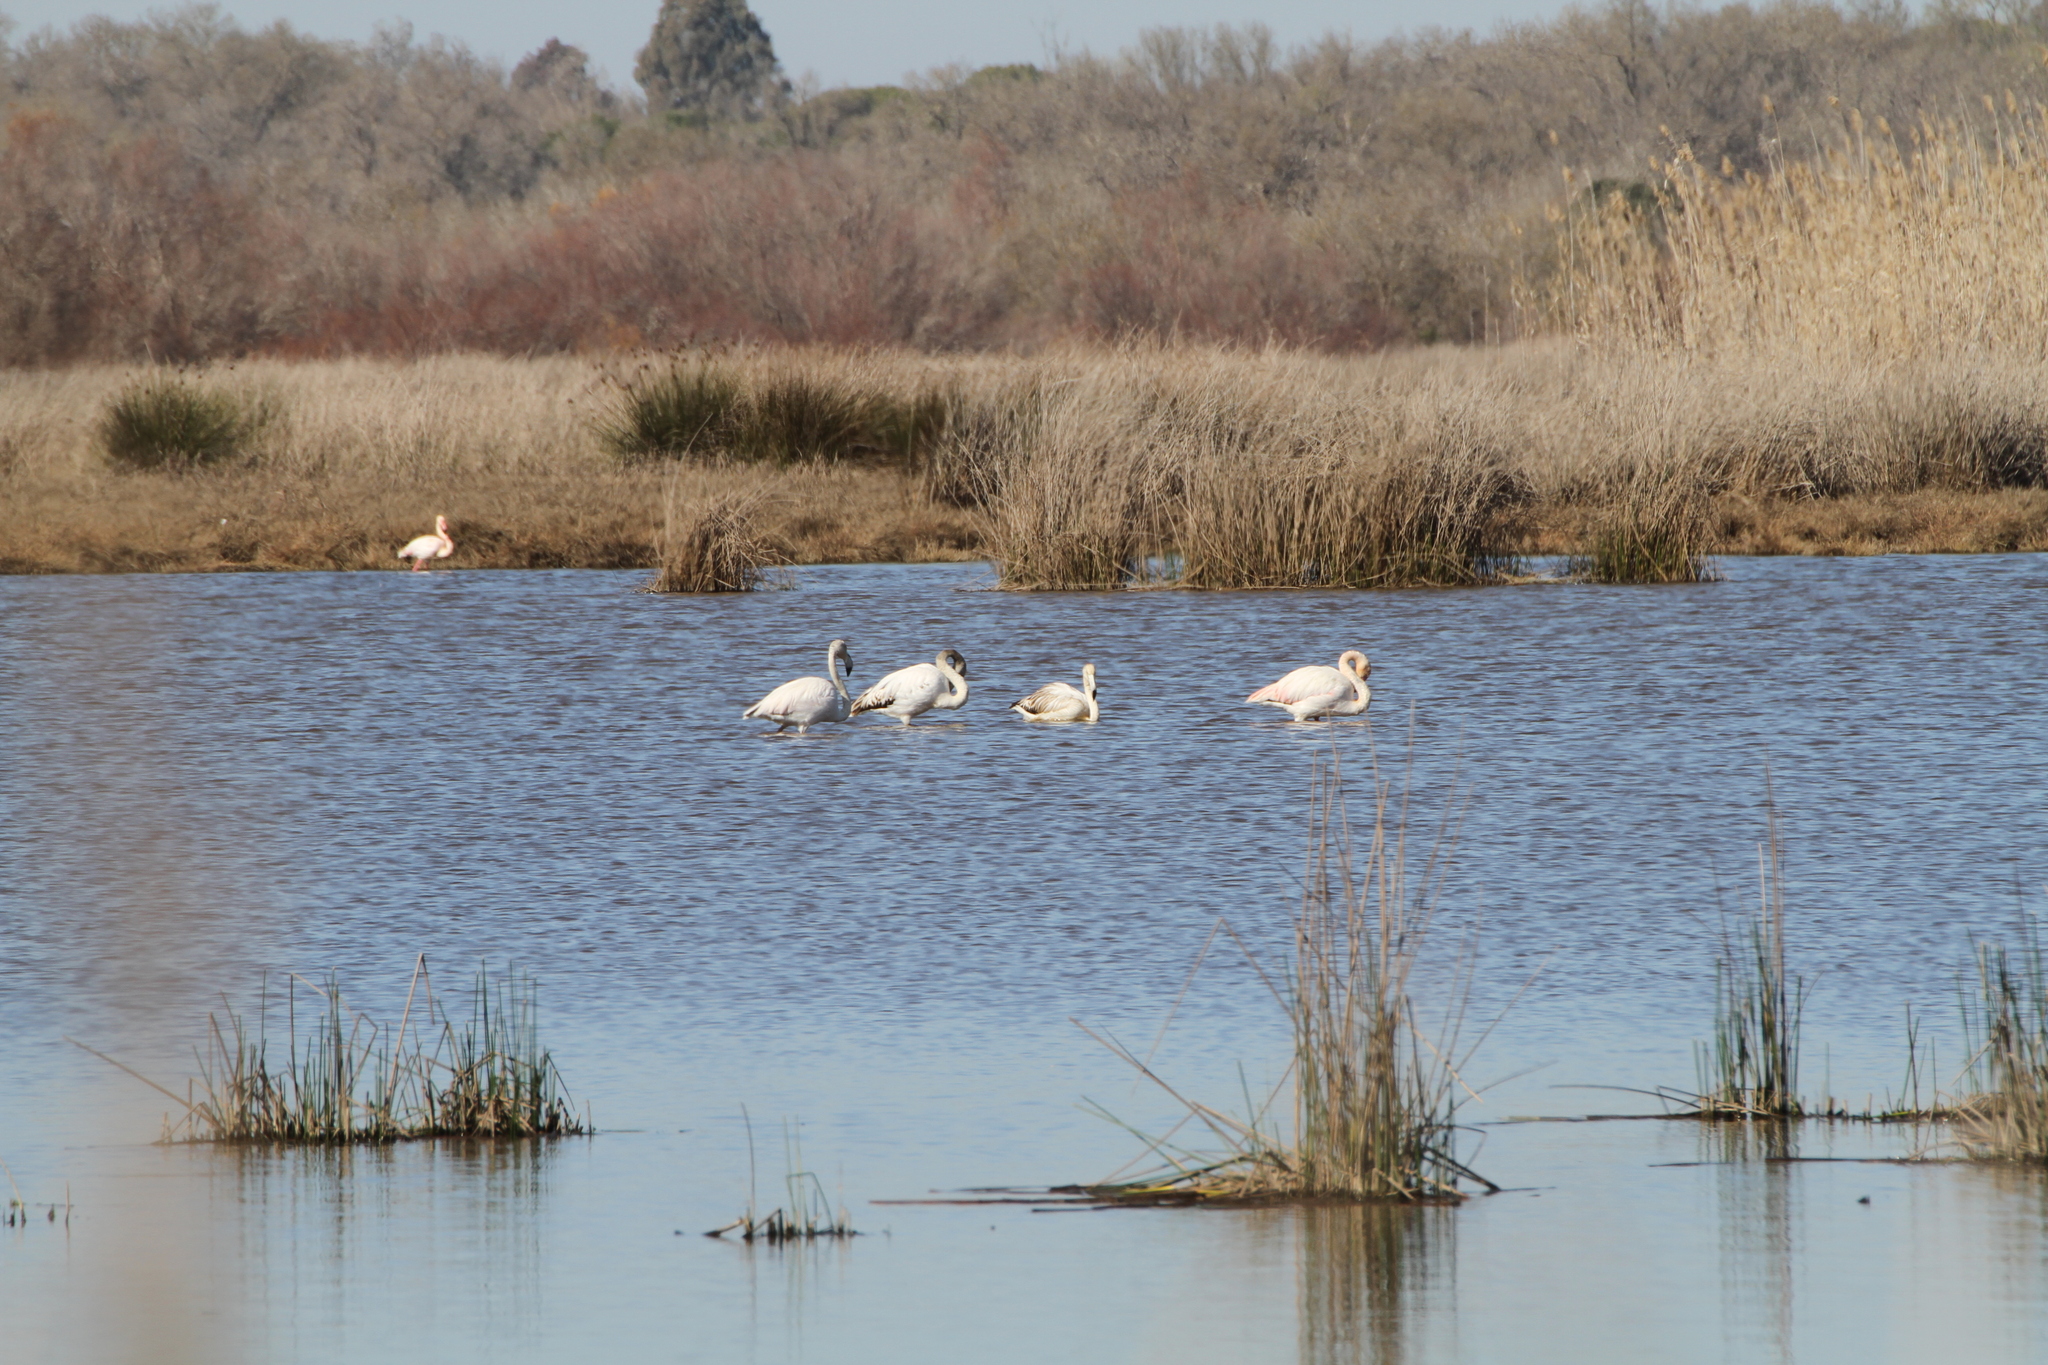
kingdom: Animalia
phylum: Chordata
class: Aves
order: Phoenicopteriformes
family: Phoenicopteridae
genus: Phoenicopterus
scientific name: Phoenicopterus roseus
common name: Greater flamingo
